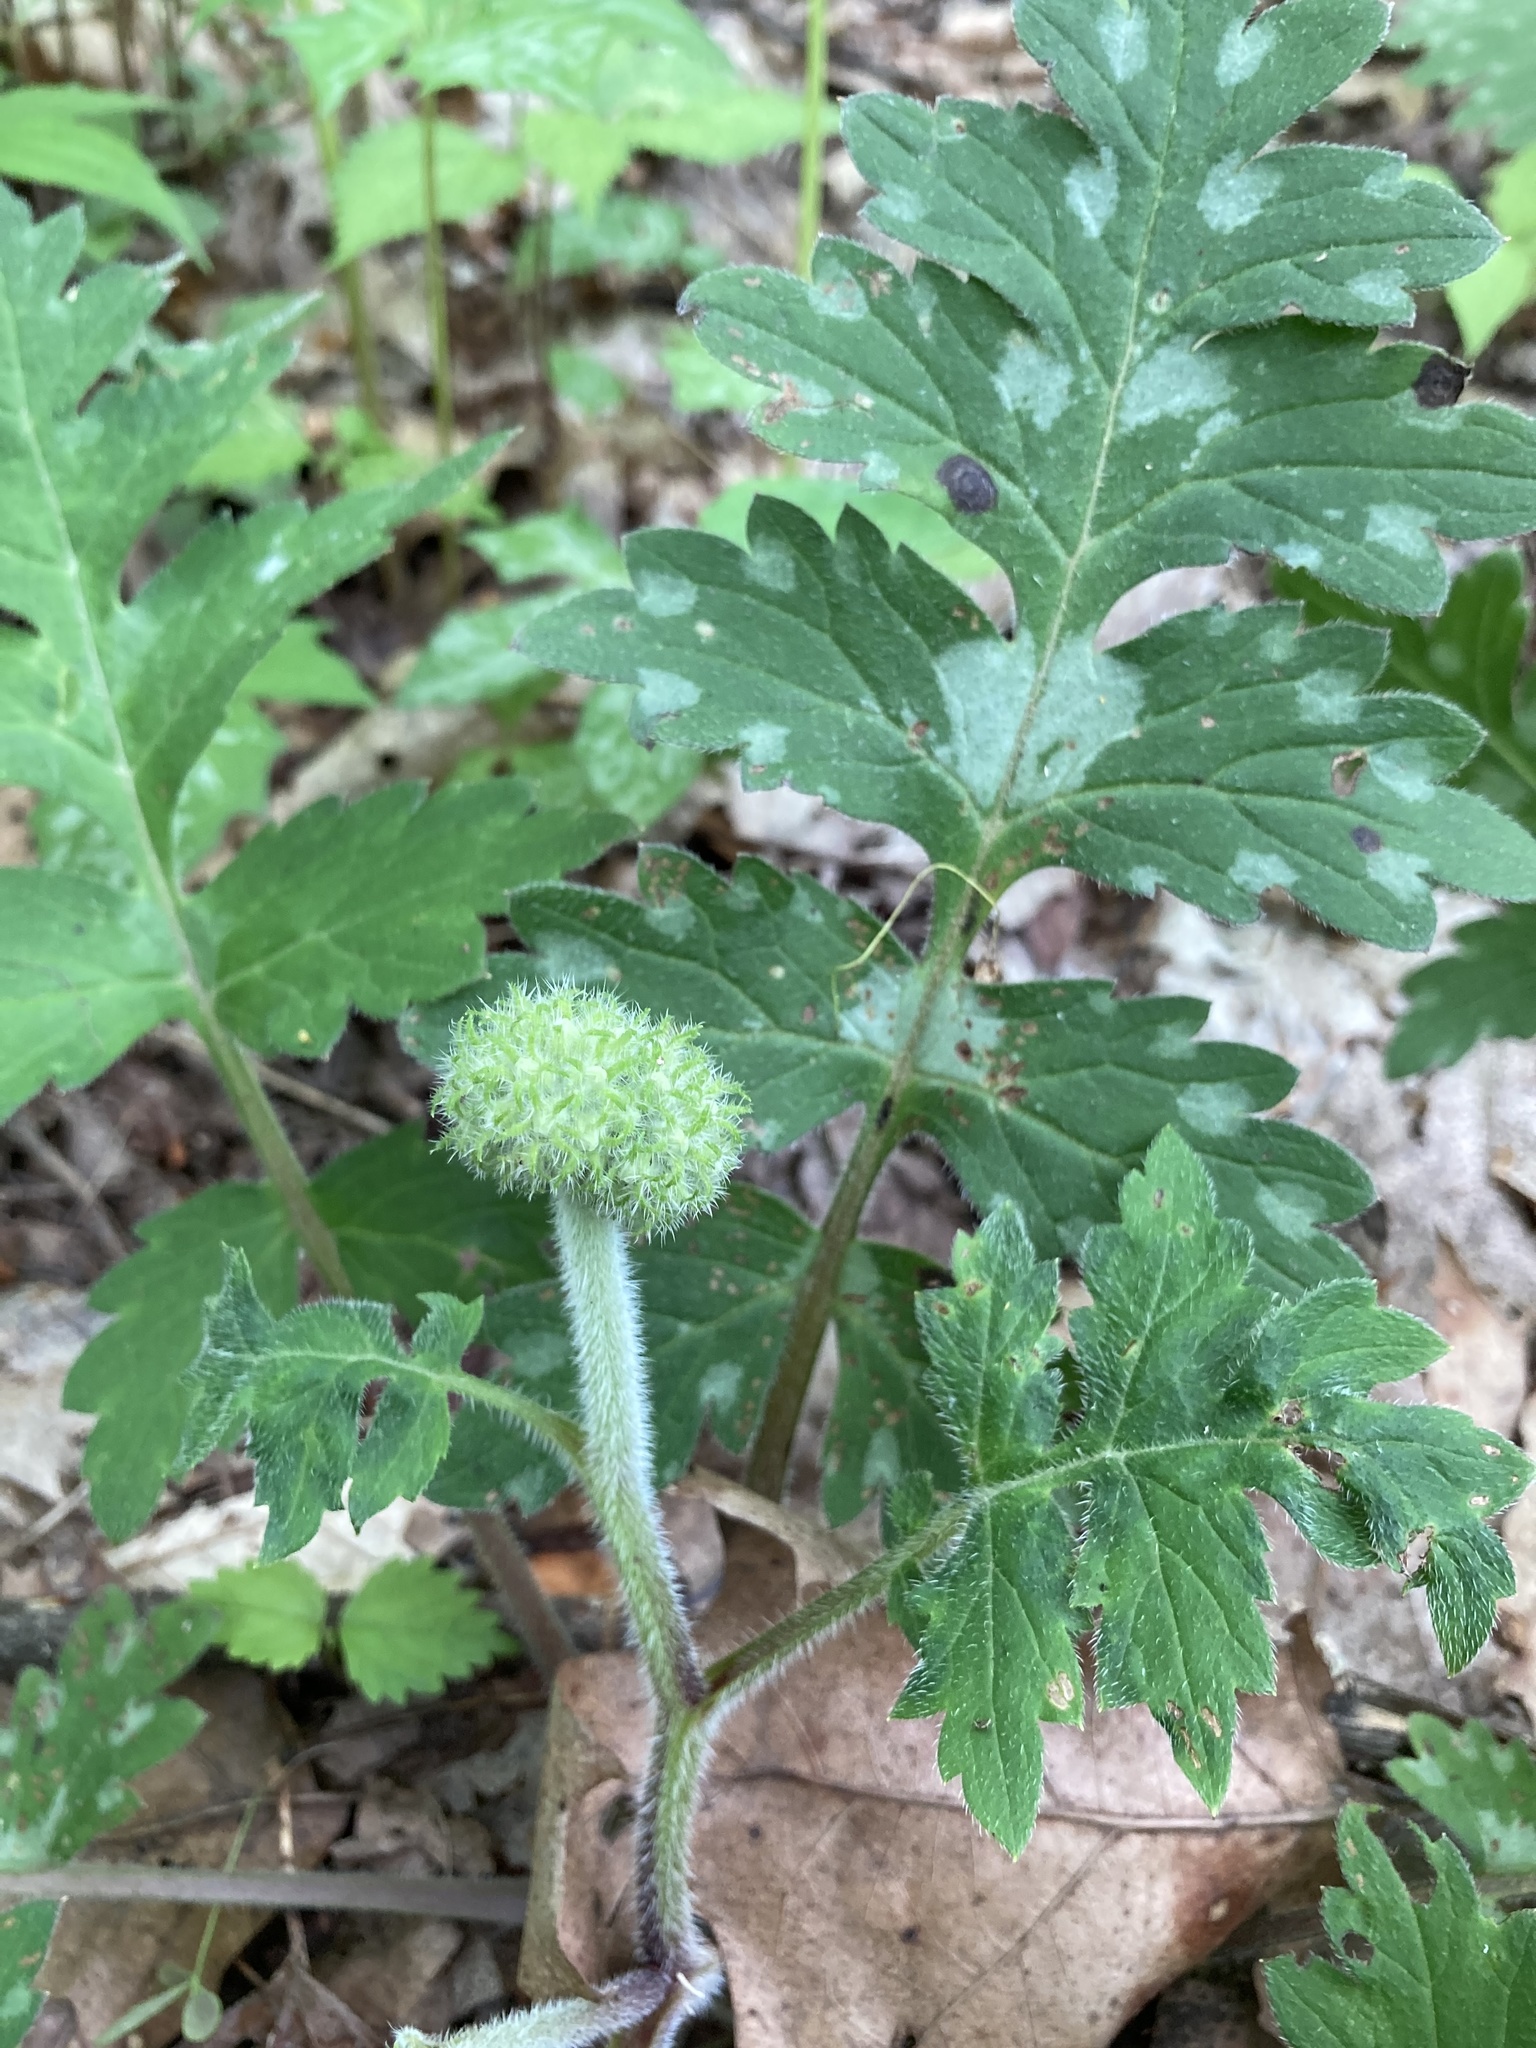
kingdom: Plantae
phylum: Tracheophyta
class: Magnoliopsida
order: Boraginales
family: Hydrophyllaceae
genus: Hydrophyllum
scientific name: Hydrophyllum macrophyllum
